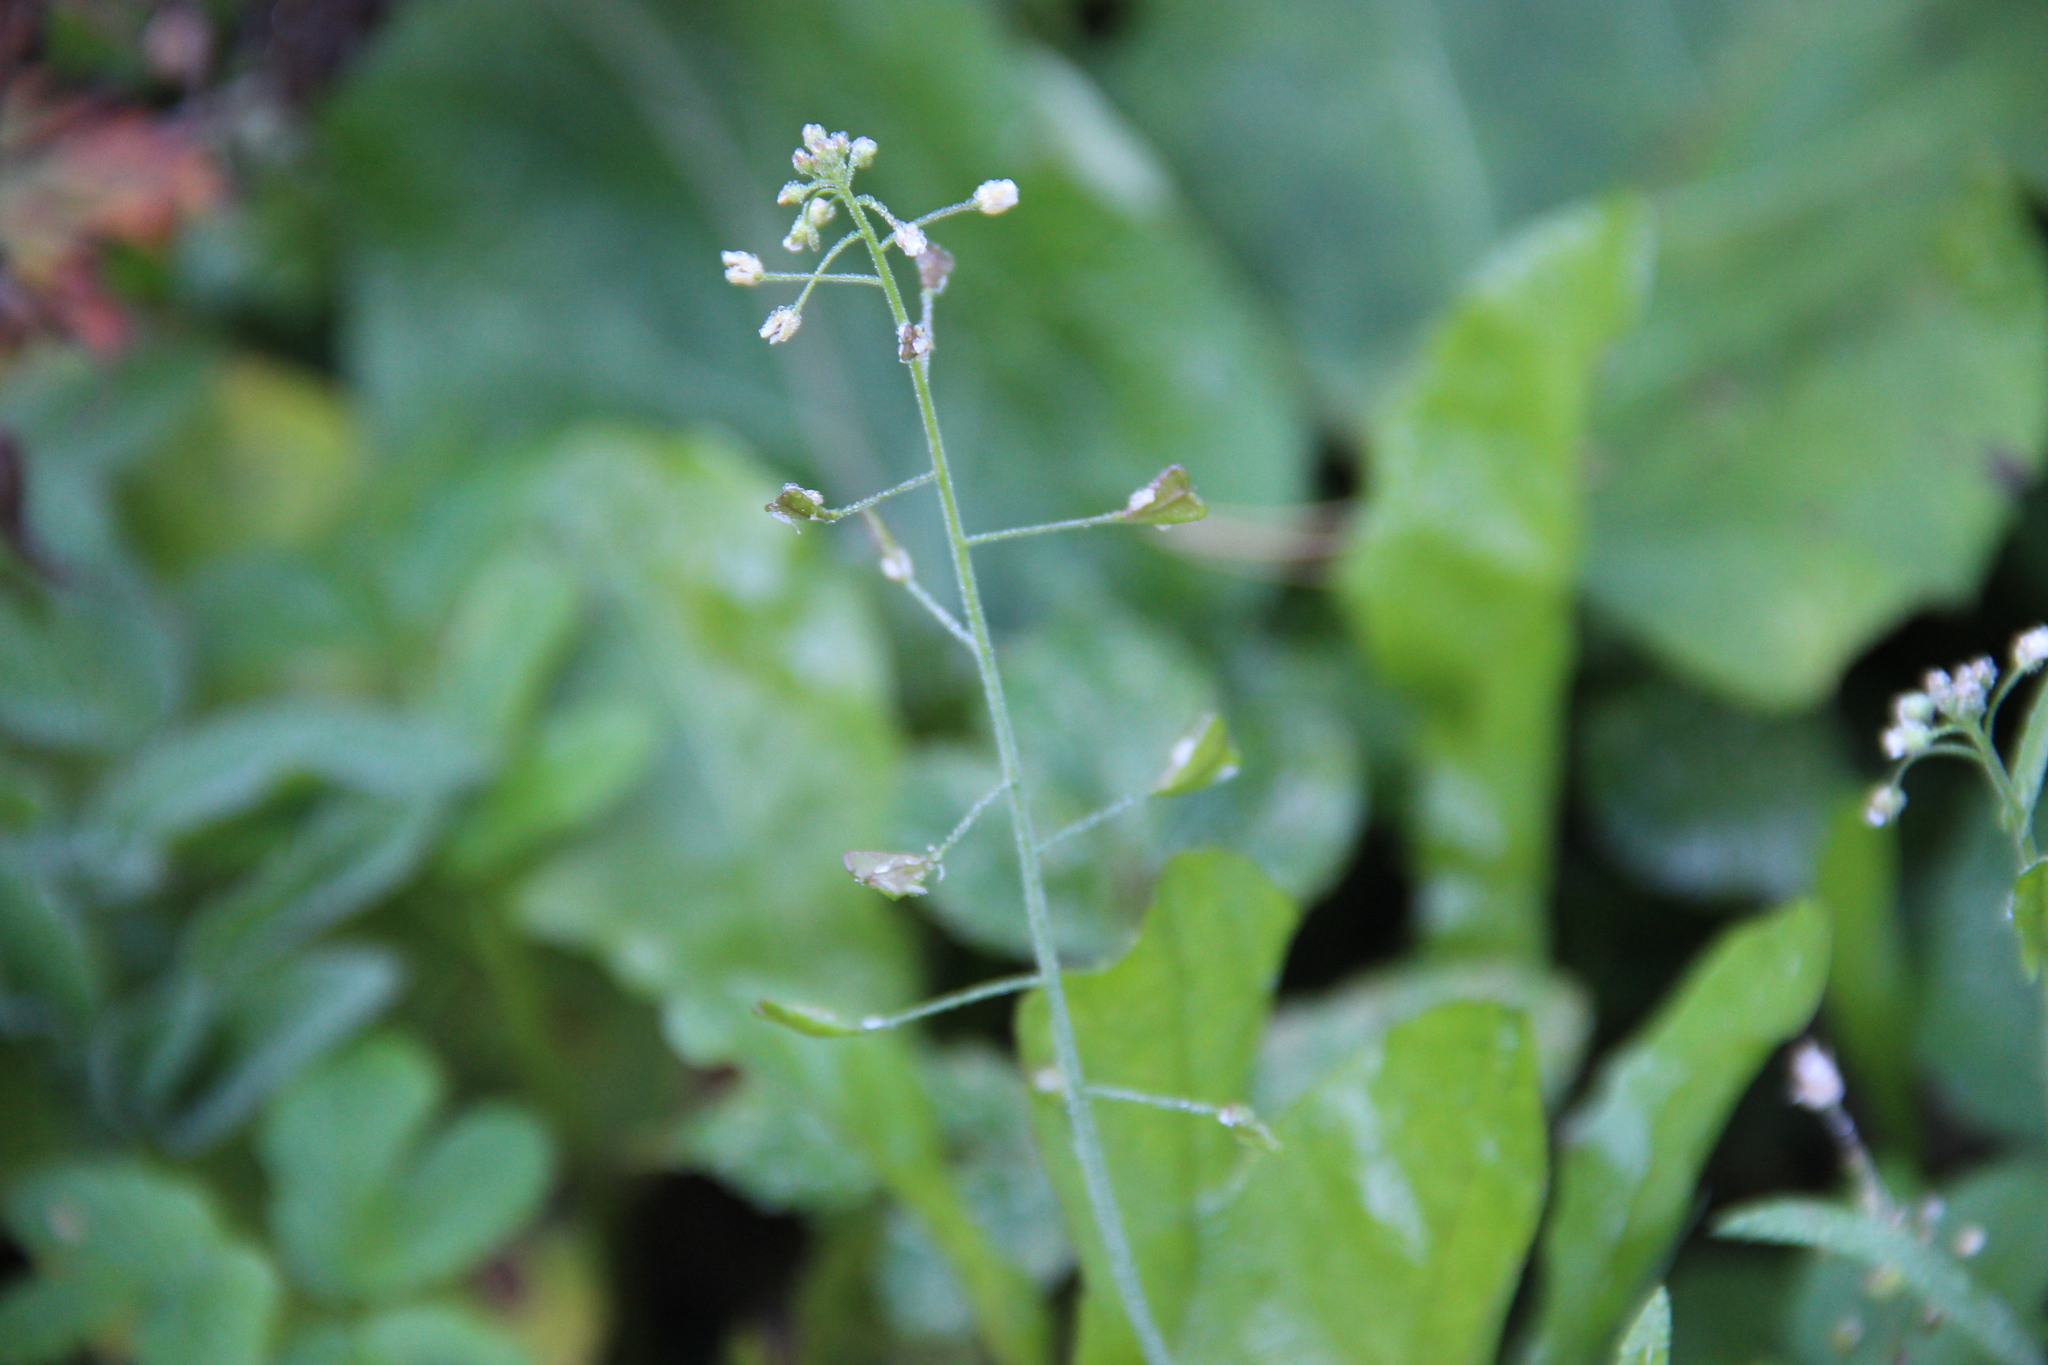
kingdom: Plantae
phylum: Tracheophyta
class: Magnoliopsida
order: Brassicales
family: Brassicaceae
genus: Capsella
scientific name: Capsella bursa-pastoris
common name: Shepherd's purse
